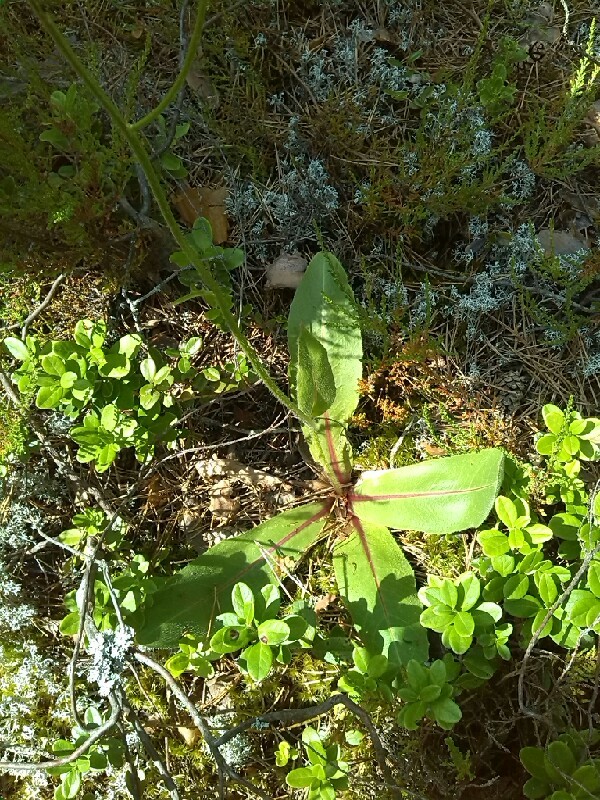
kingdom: Plantae
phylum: Tracheophyta
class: Magnoliopsida
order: Asterales
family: Asteraceae
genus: Trommsdorffia
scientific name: Trommsdorffia maculata
